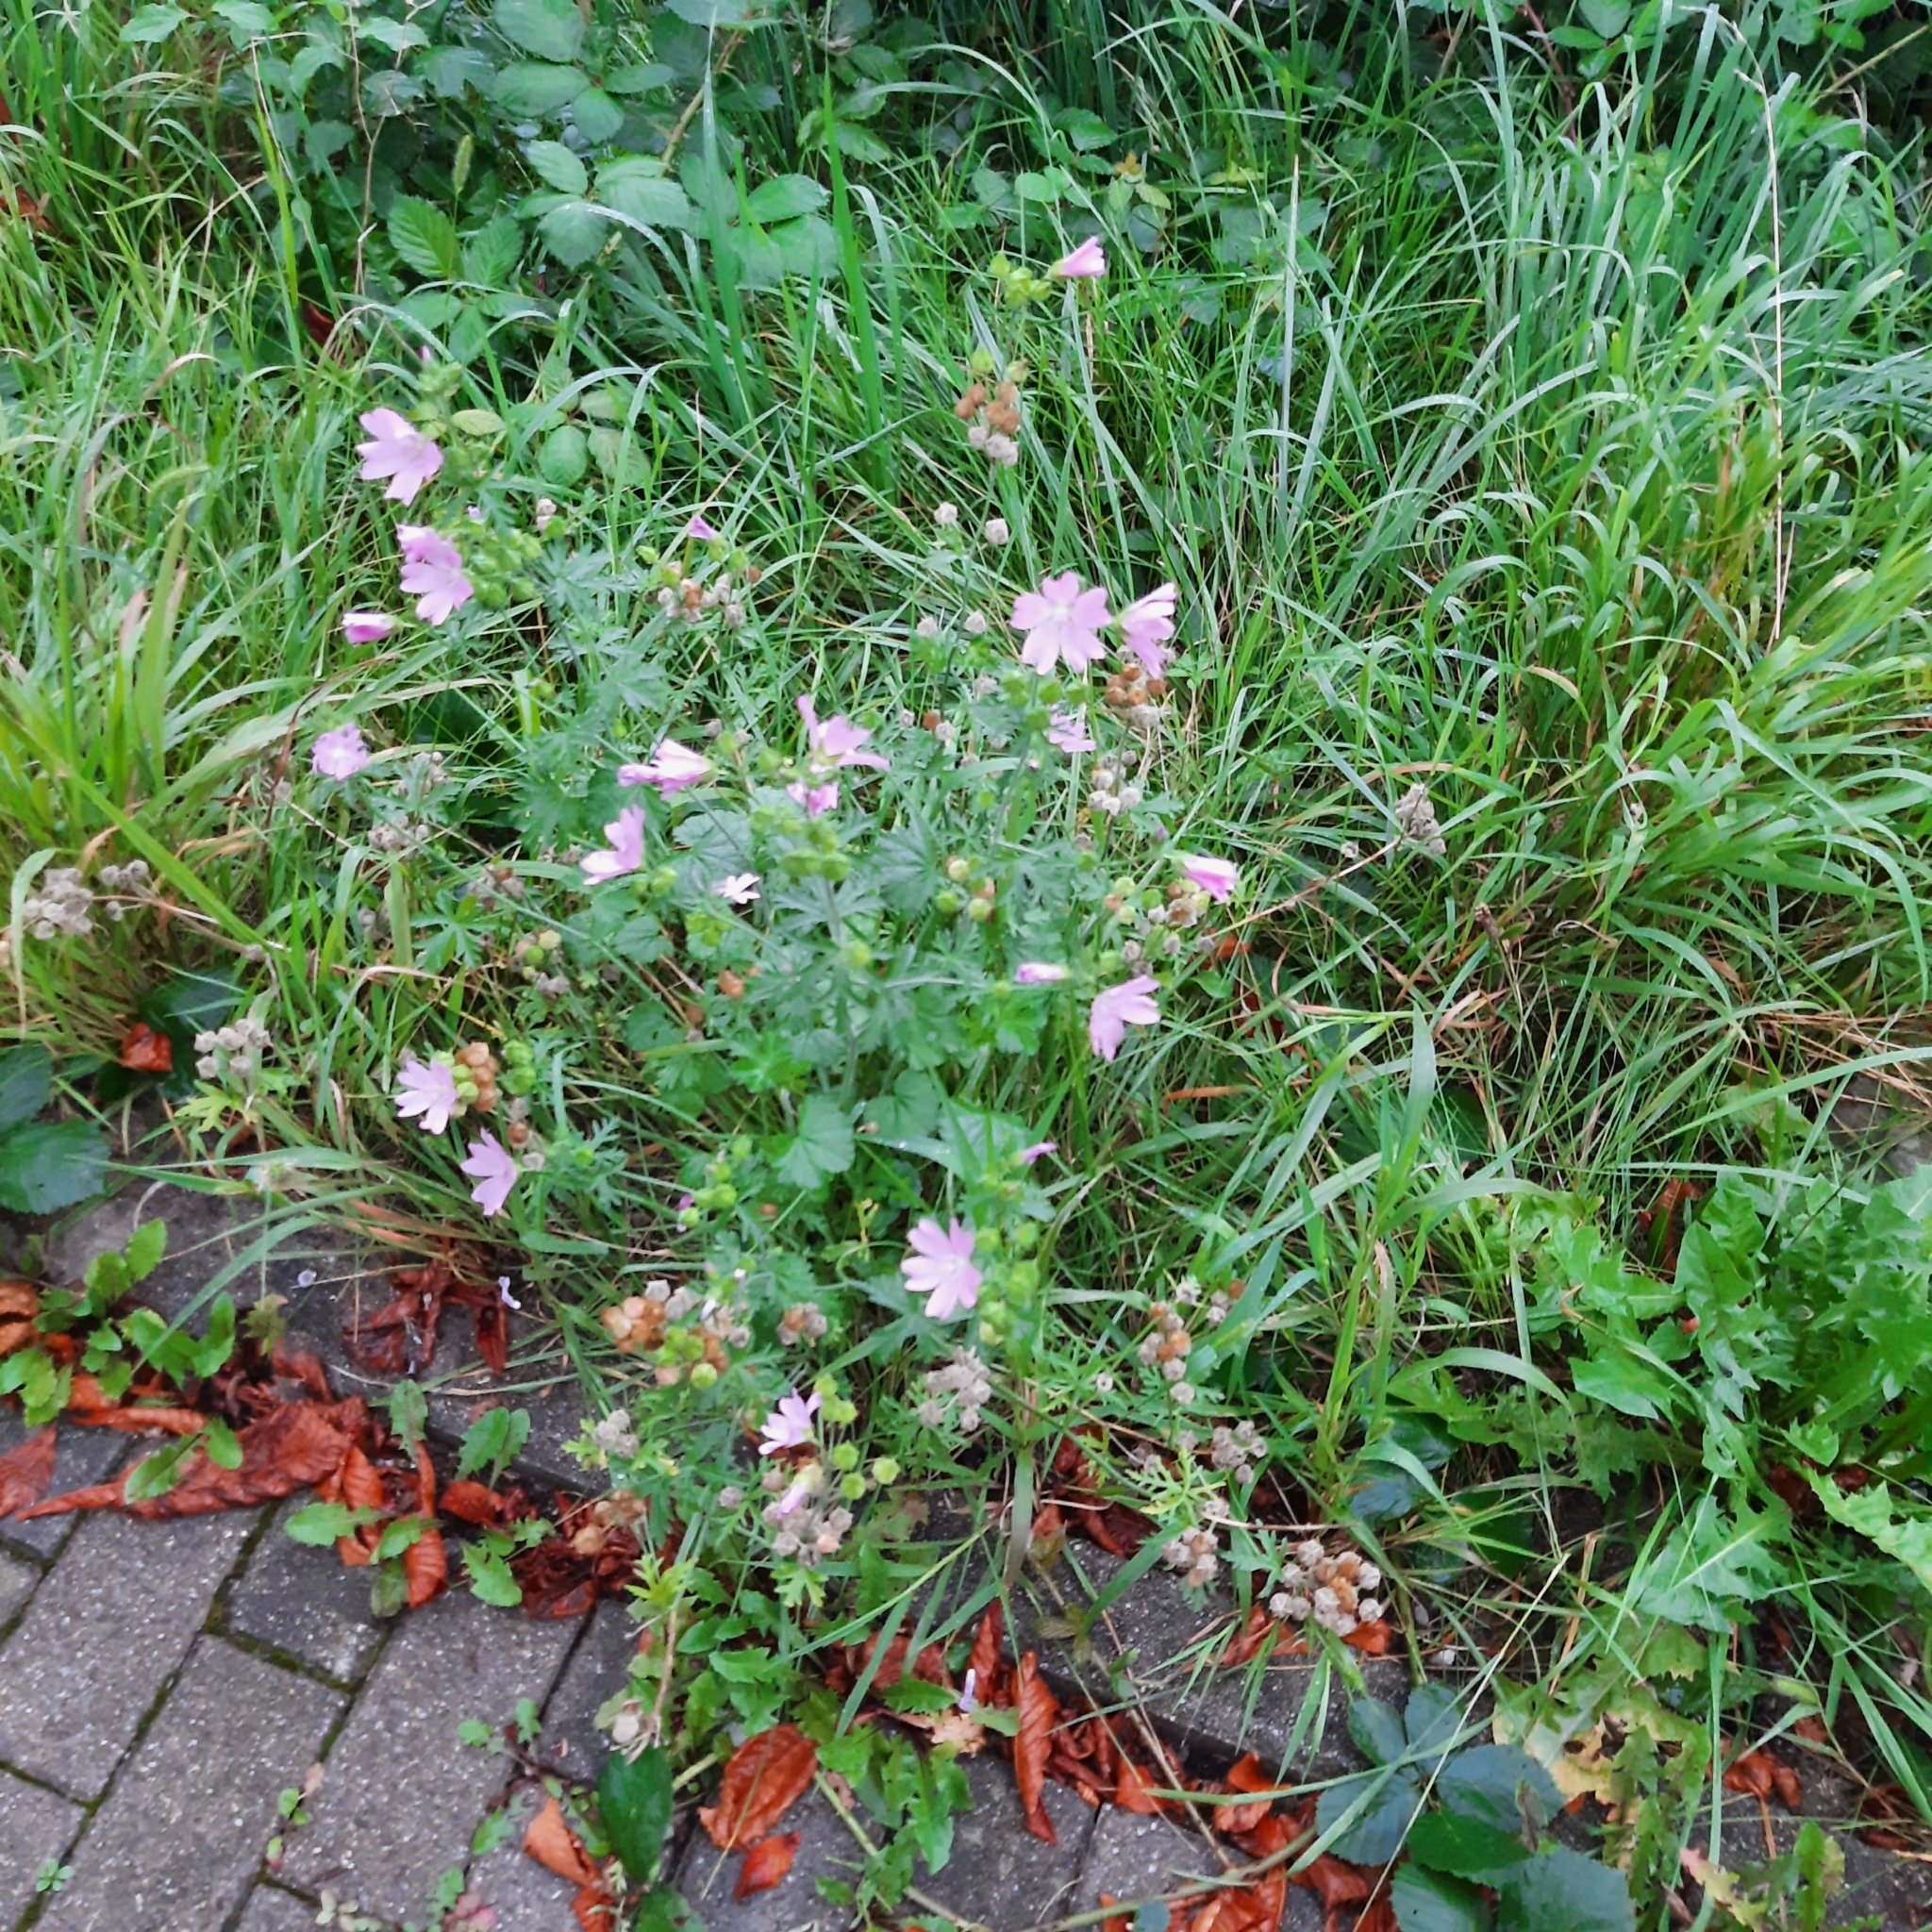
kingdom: Plantae
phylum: Tracheophyta
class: Magnoliopsida
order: Malvales
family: Malvaceae
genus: Malva
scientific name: Malva moschata
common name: Musk mallow
